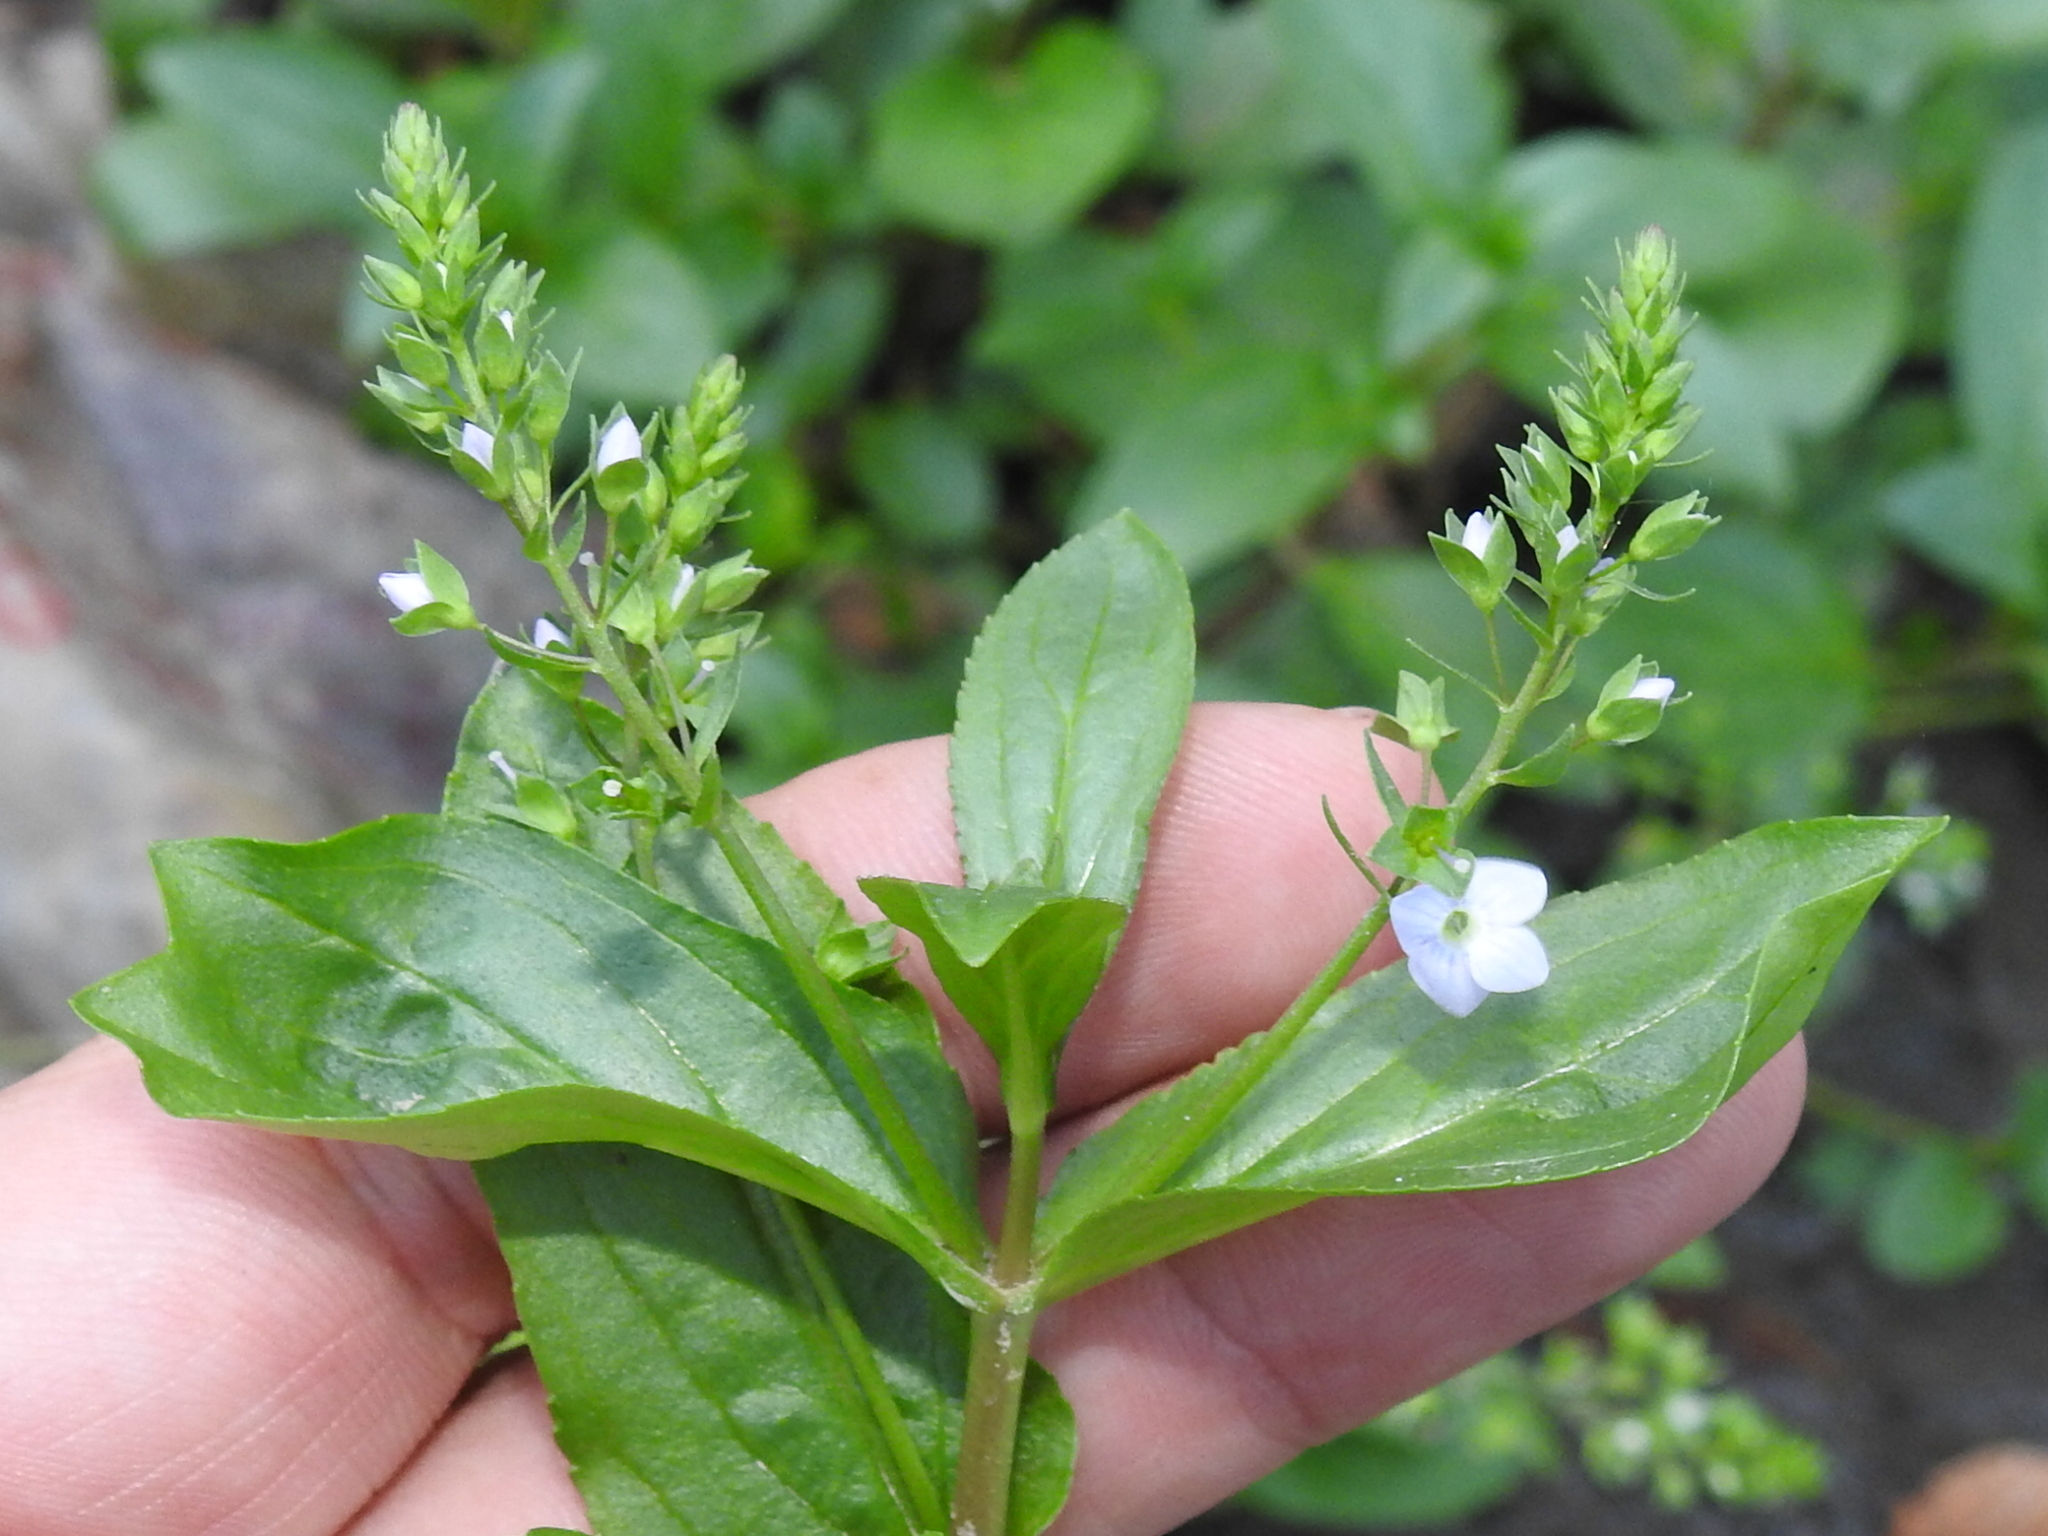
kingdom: Plantae
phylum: Tracheophyta
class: Magnoliopsida
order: Lamiales
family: Plantaginaceae
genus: Veronica
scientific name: Veronica anagallis-aquatica
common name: Water speedwell
